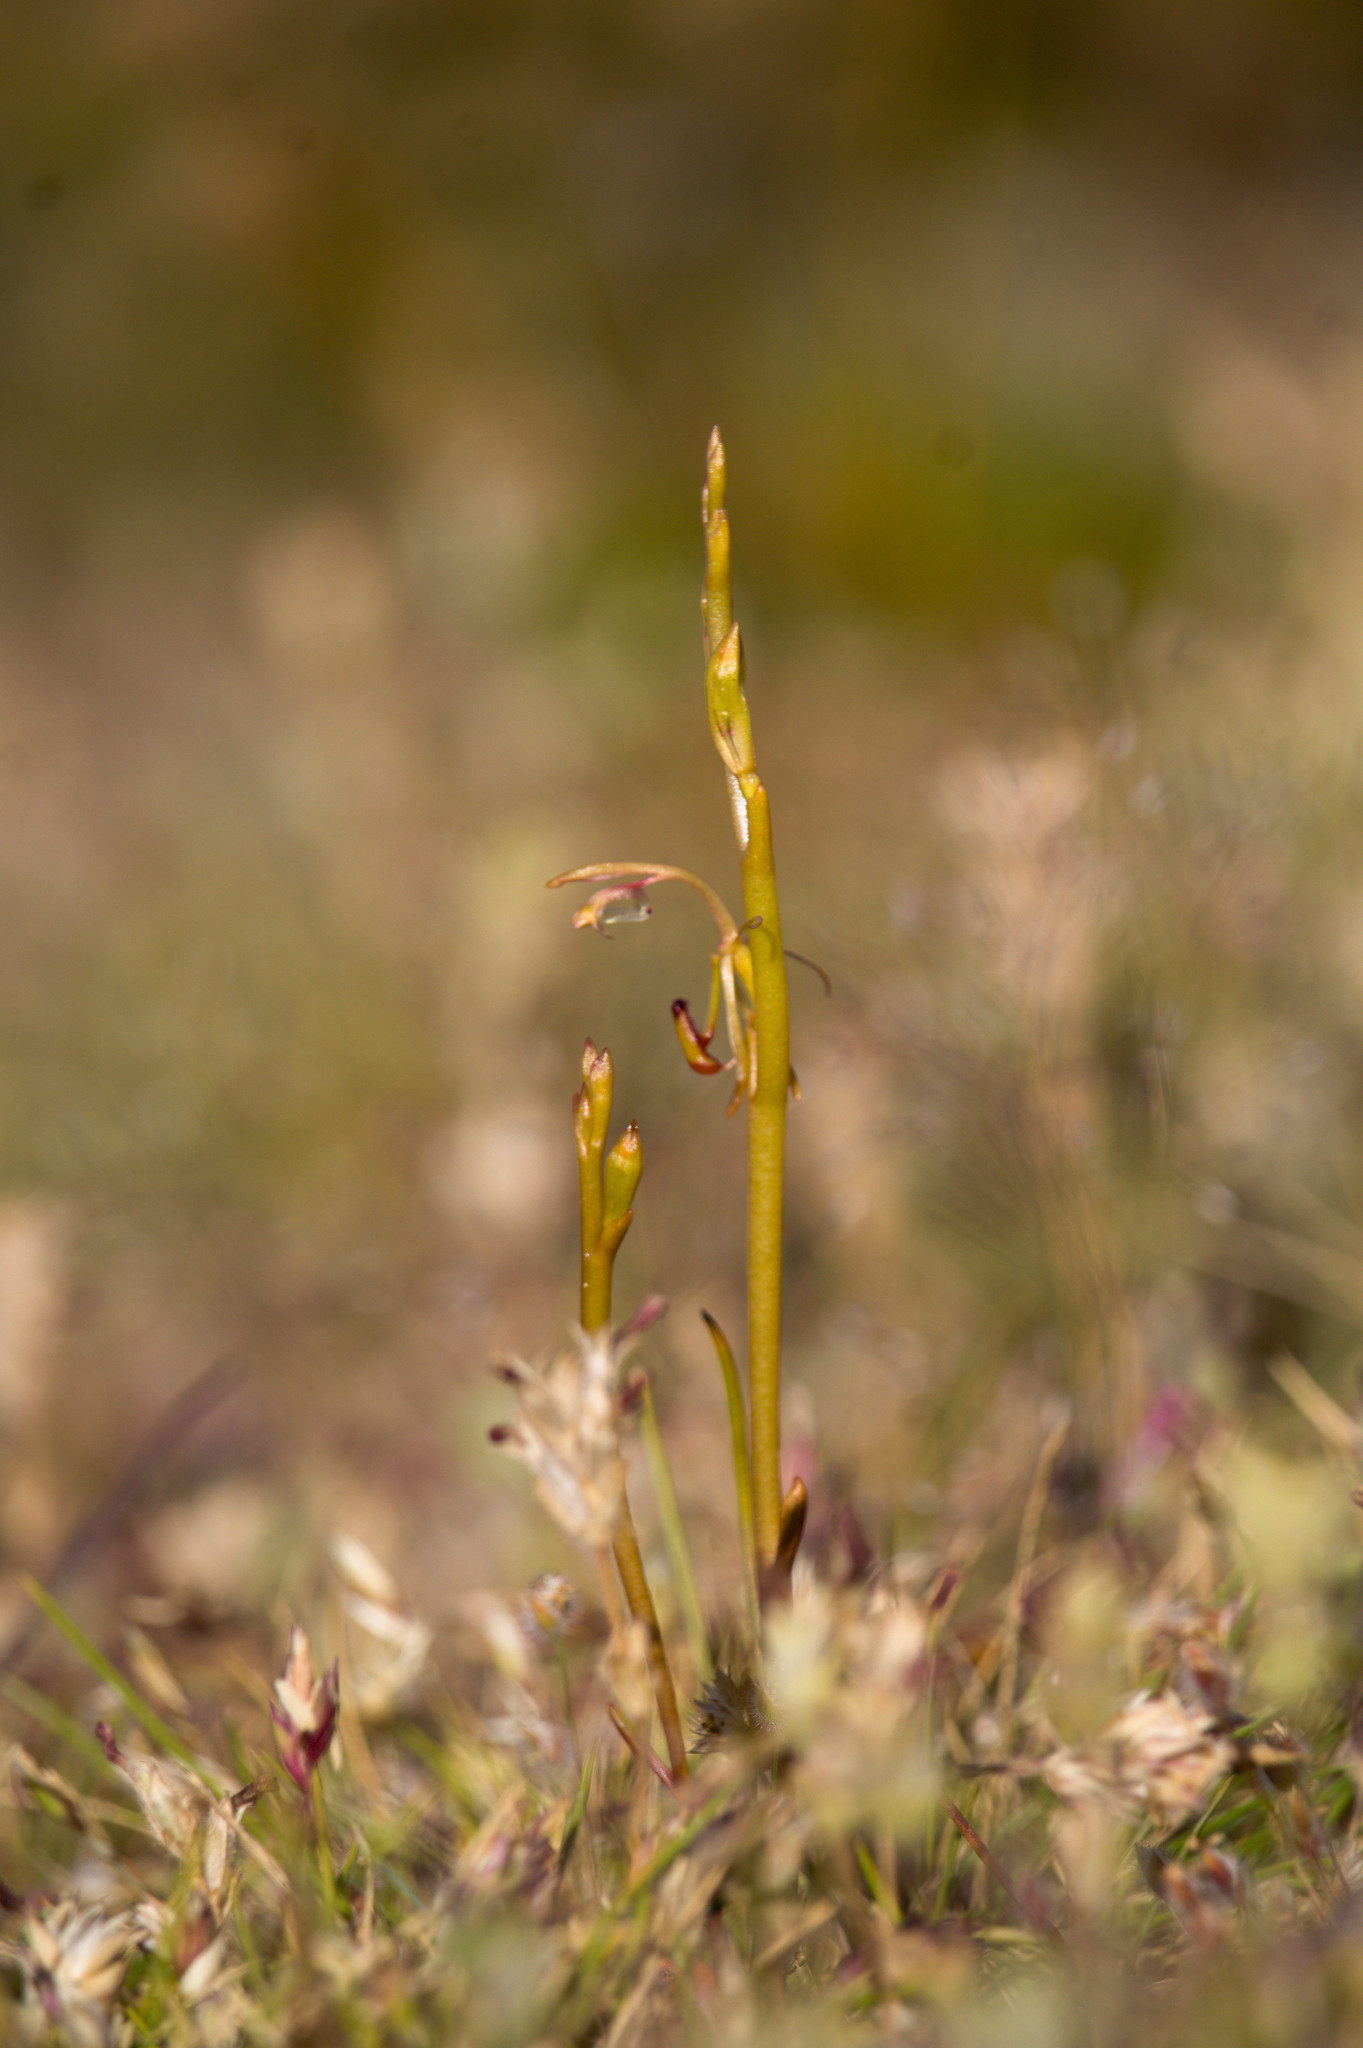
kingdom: Plantae
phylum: Tracheophyta
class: Liliopsida
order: Asparagales
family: Orchidaceae
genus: Spiculaea
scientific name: Spiculaea ciliata
